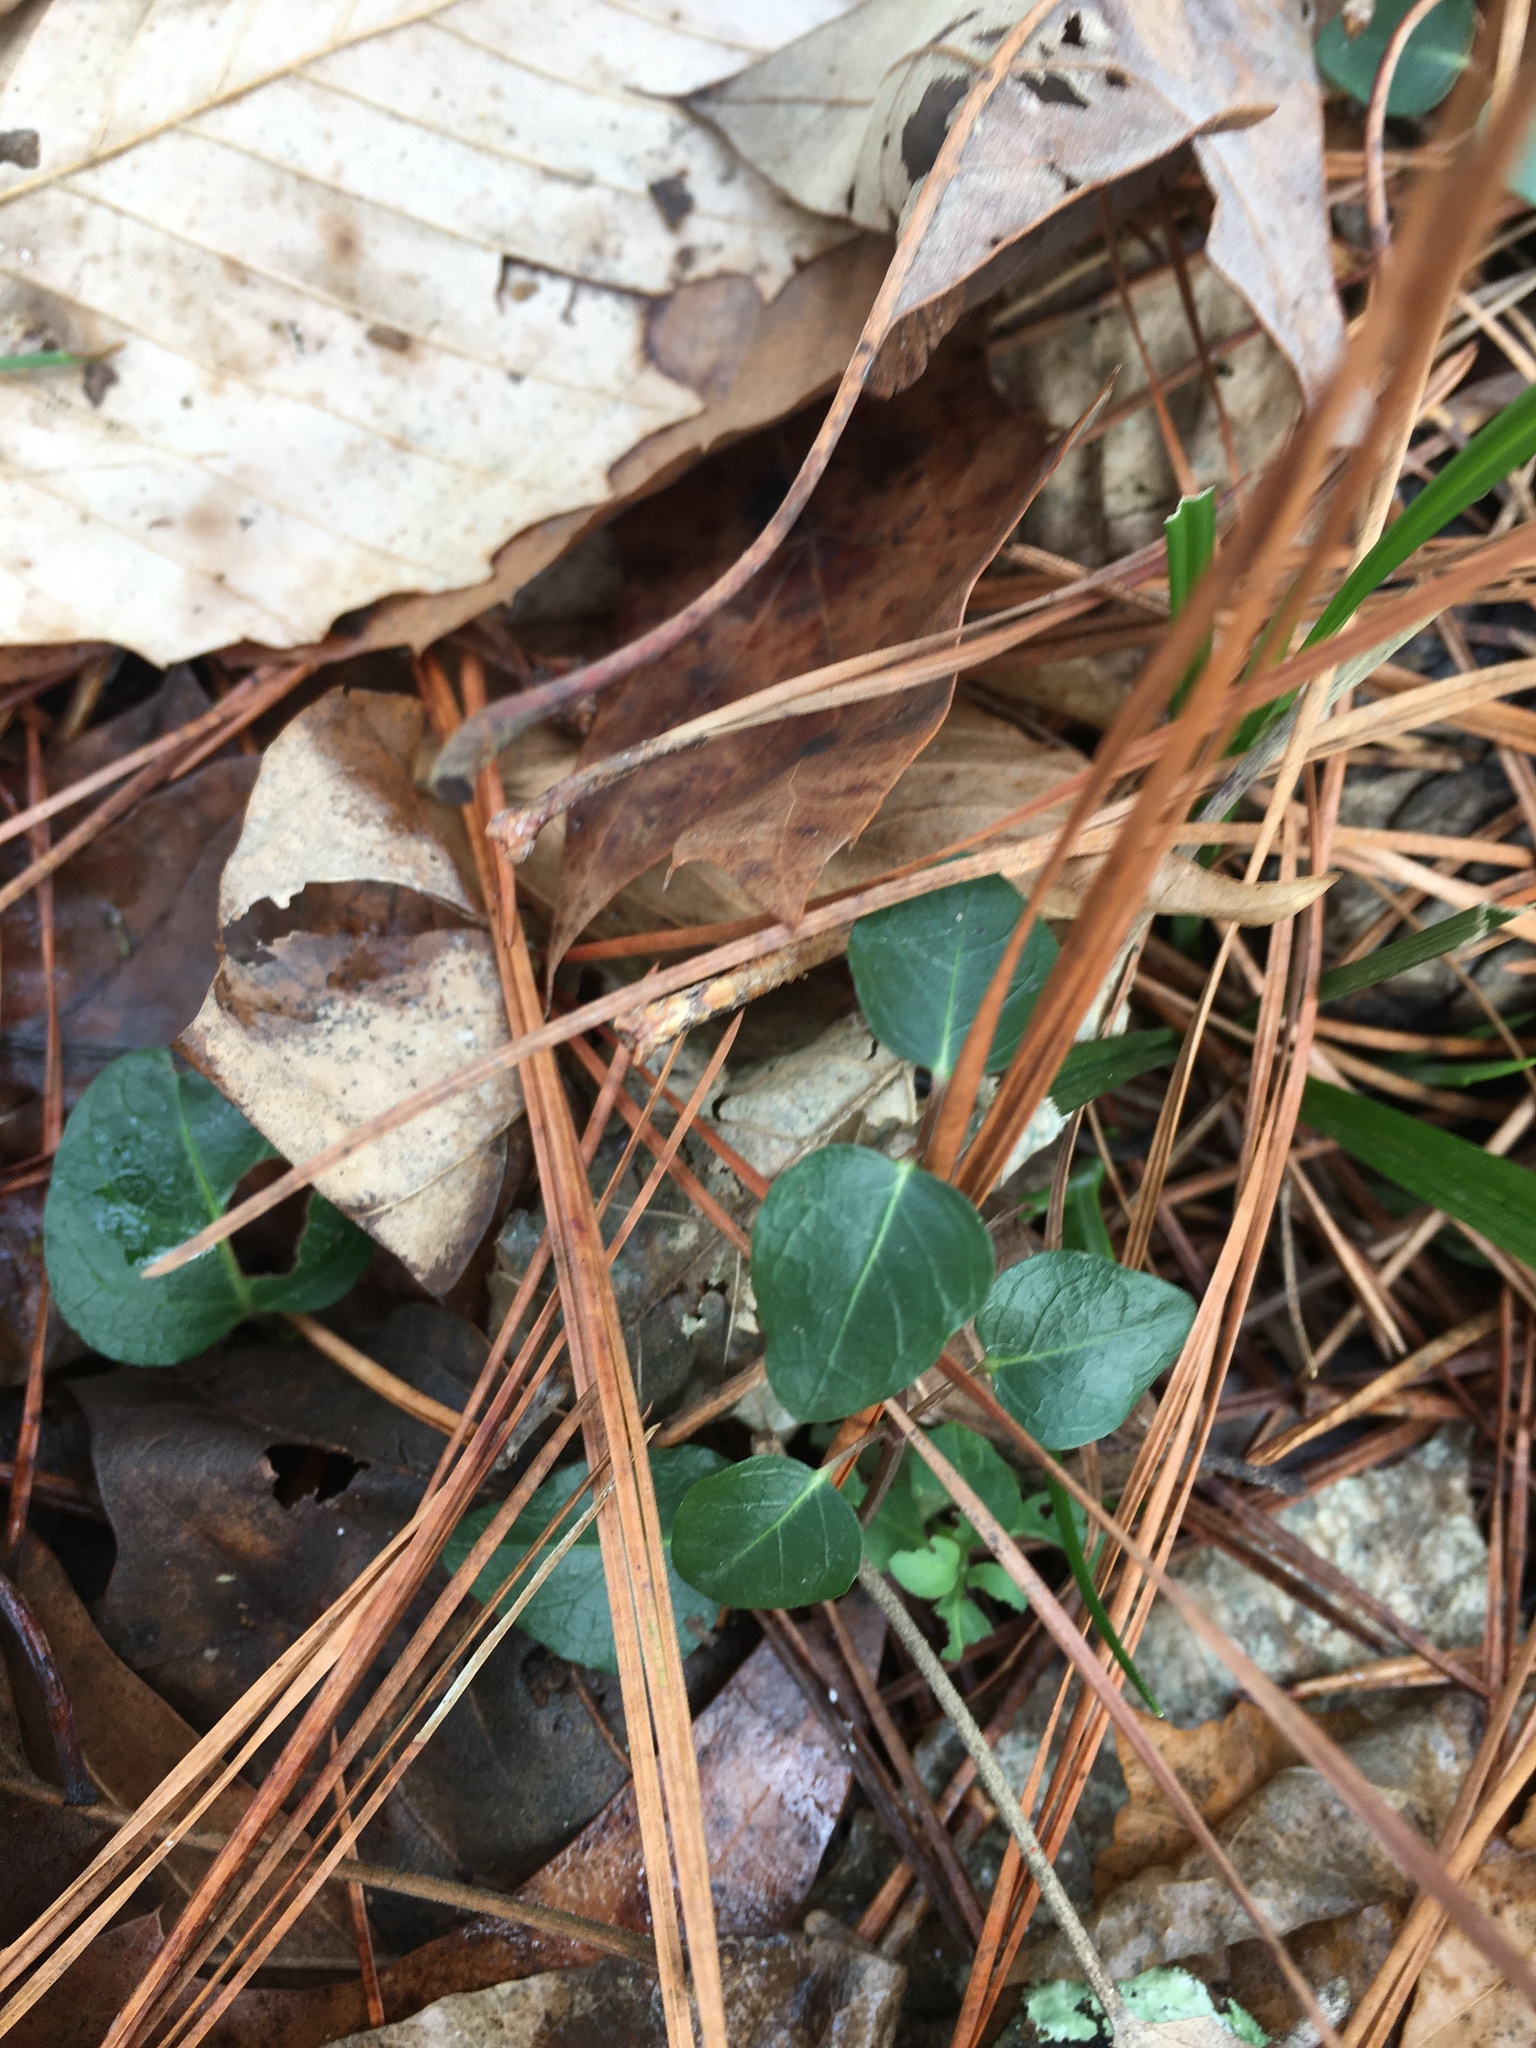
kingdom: Plantae
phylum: Tracheophyta
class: Magnoliopsida
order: Gentianales
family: Rubiaceae
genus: Mitchella
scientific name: Mitchella repens
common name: Partridge-berry
